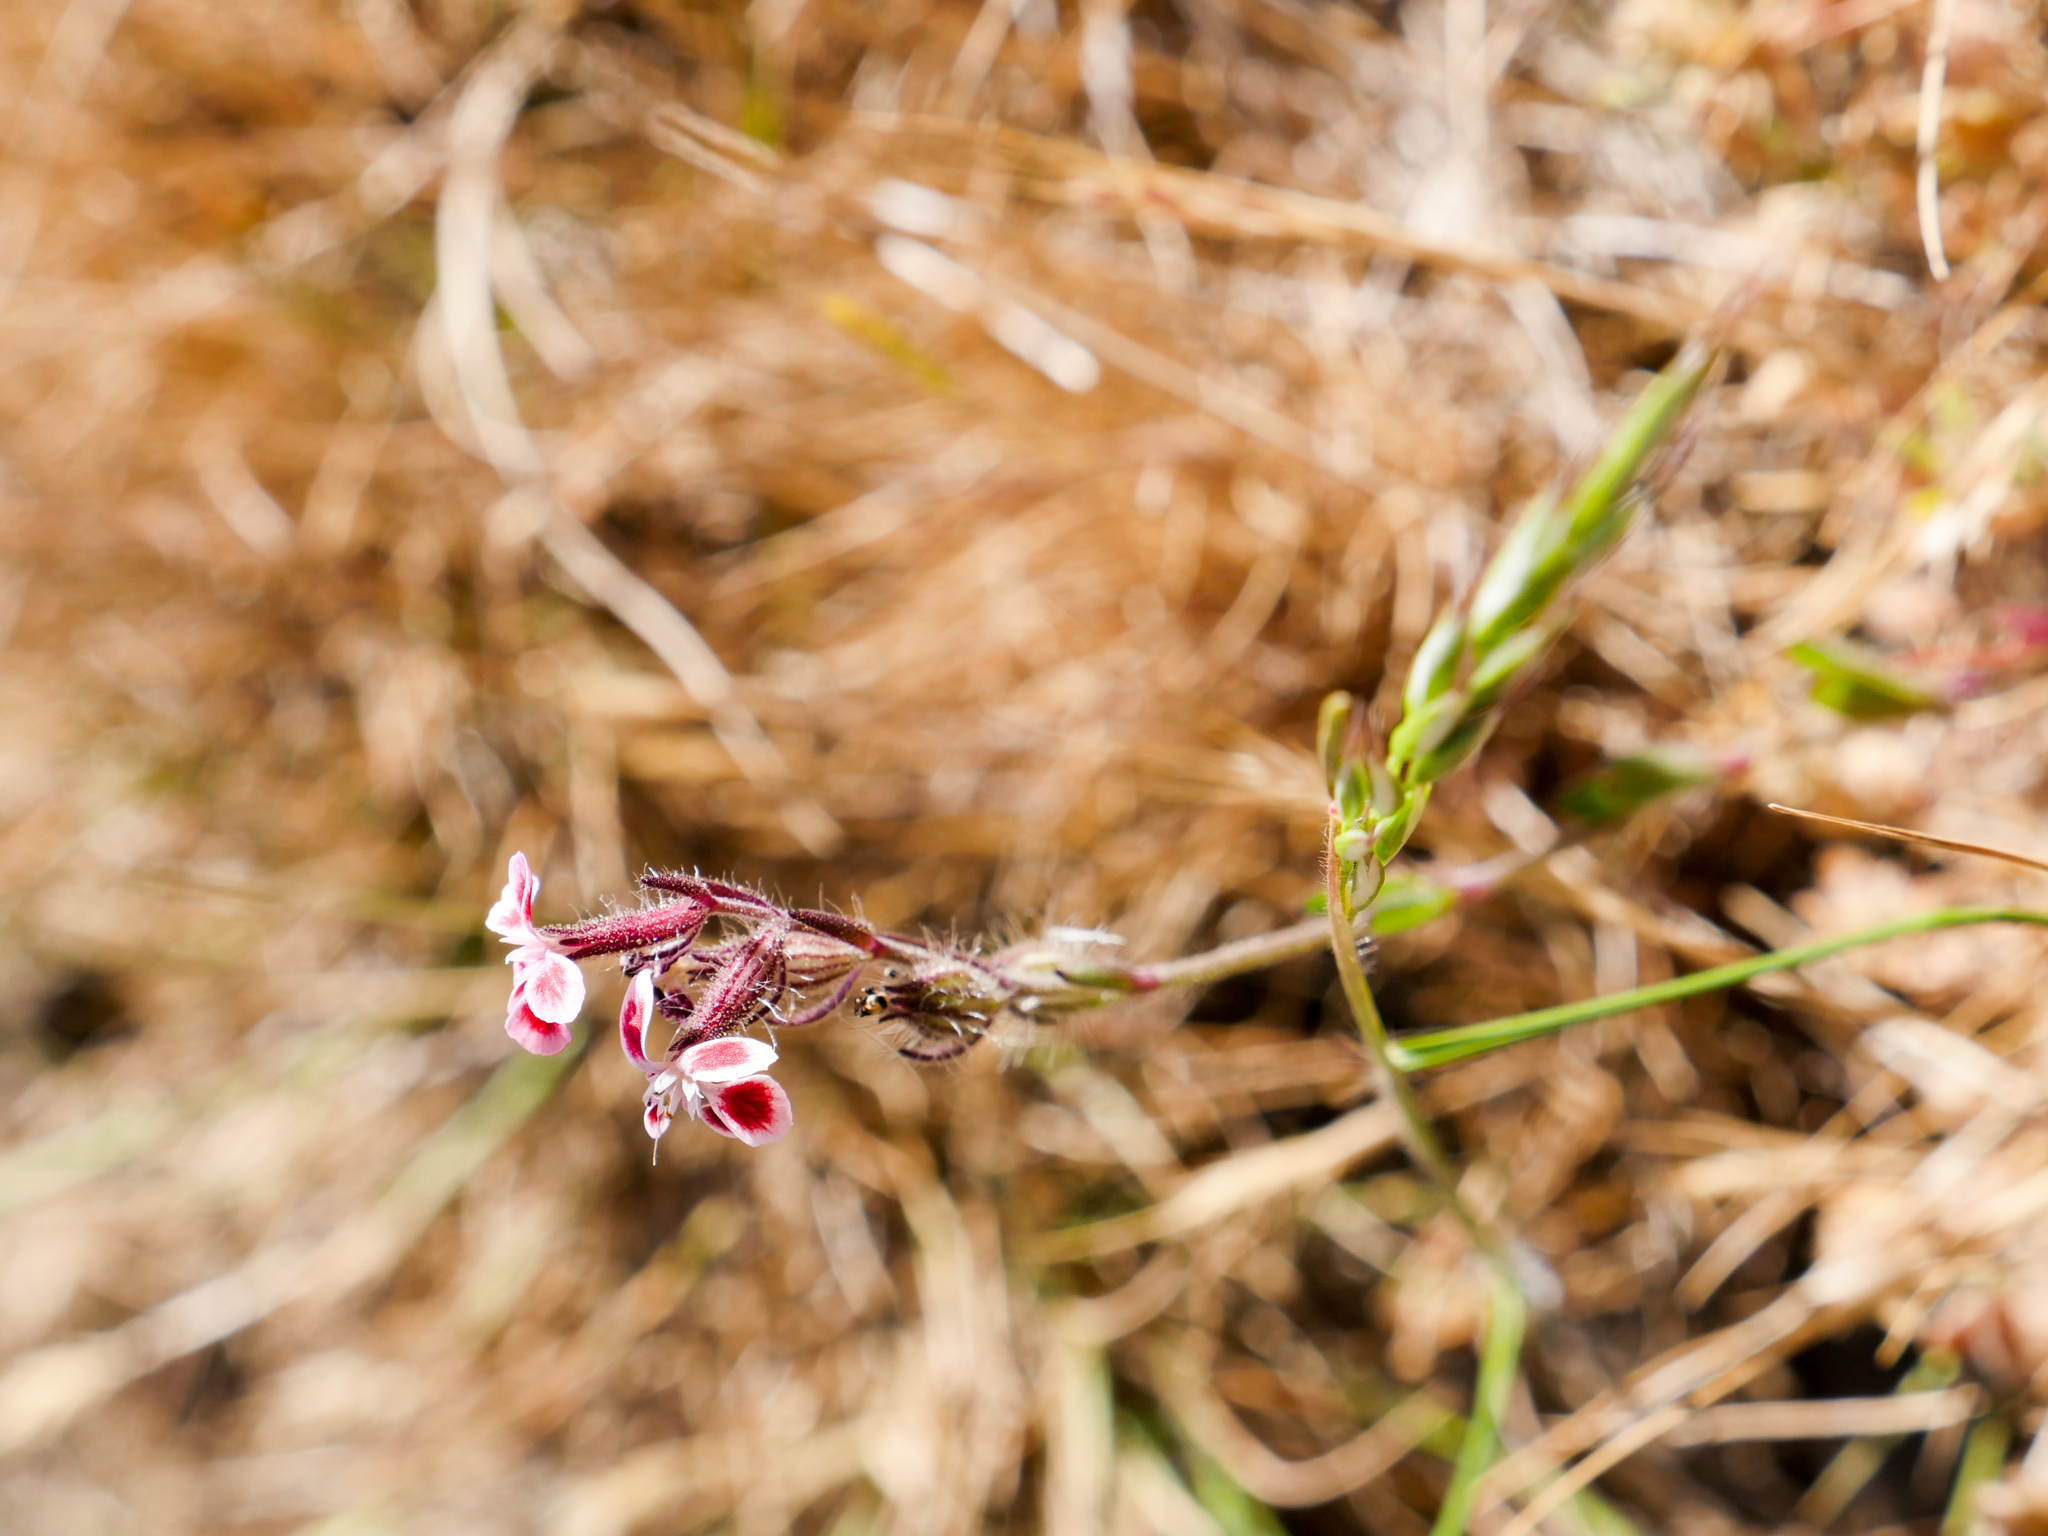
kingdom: Plantae
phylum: Tracheophyta
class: Magnoliopsida
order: Caryophyllales
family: Caryophyllaceae
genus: Silene
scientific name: Silene gallica
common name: Small-flowered catchfly
